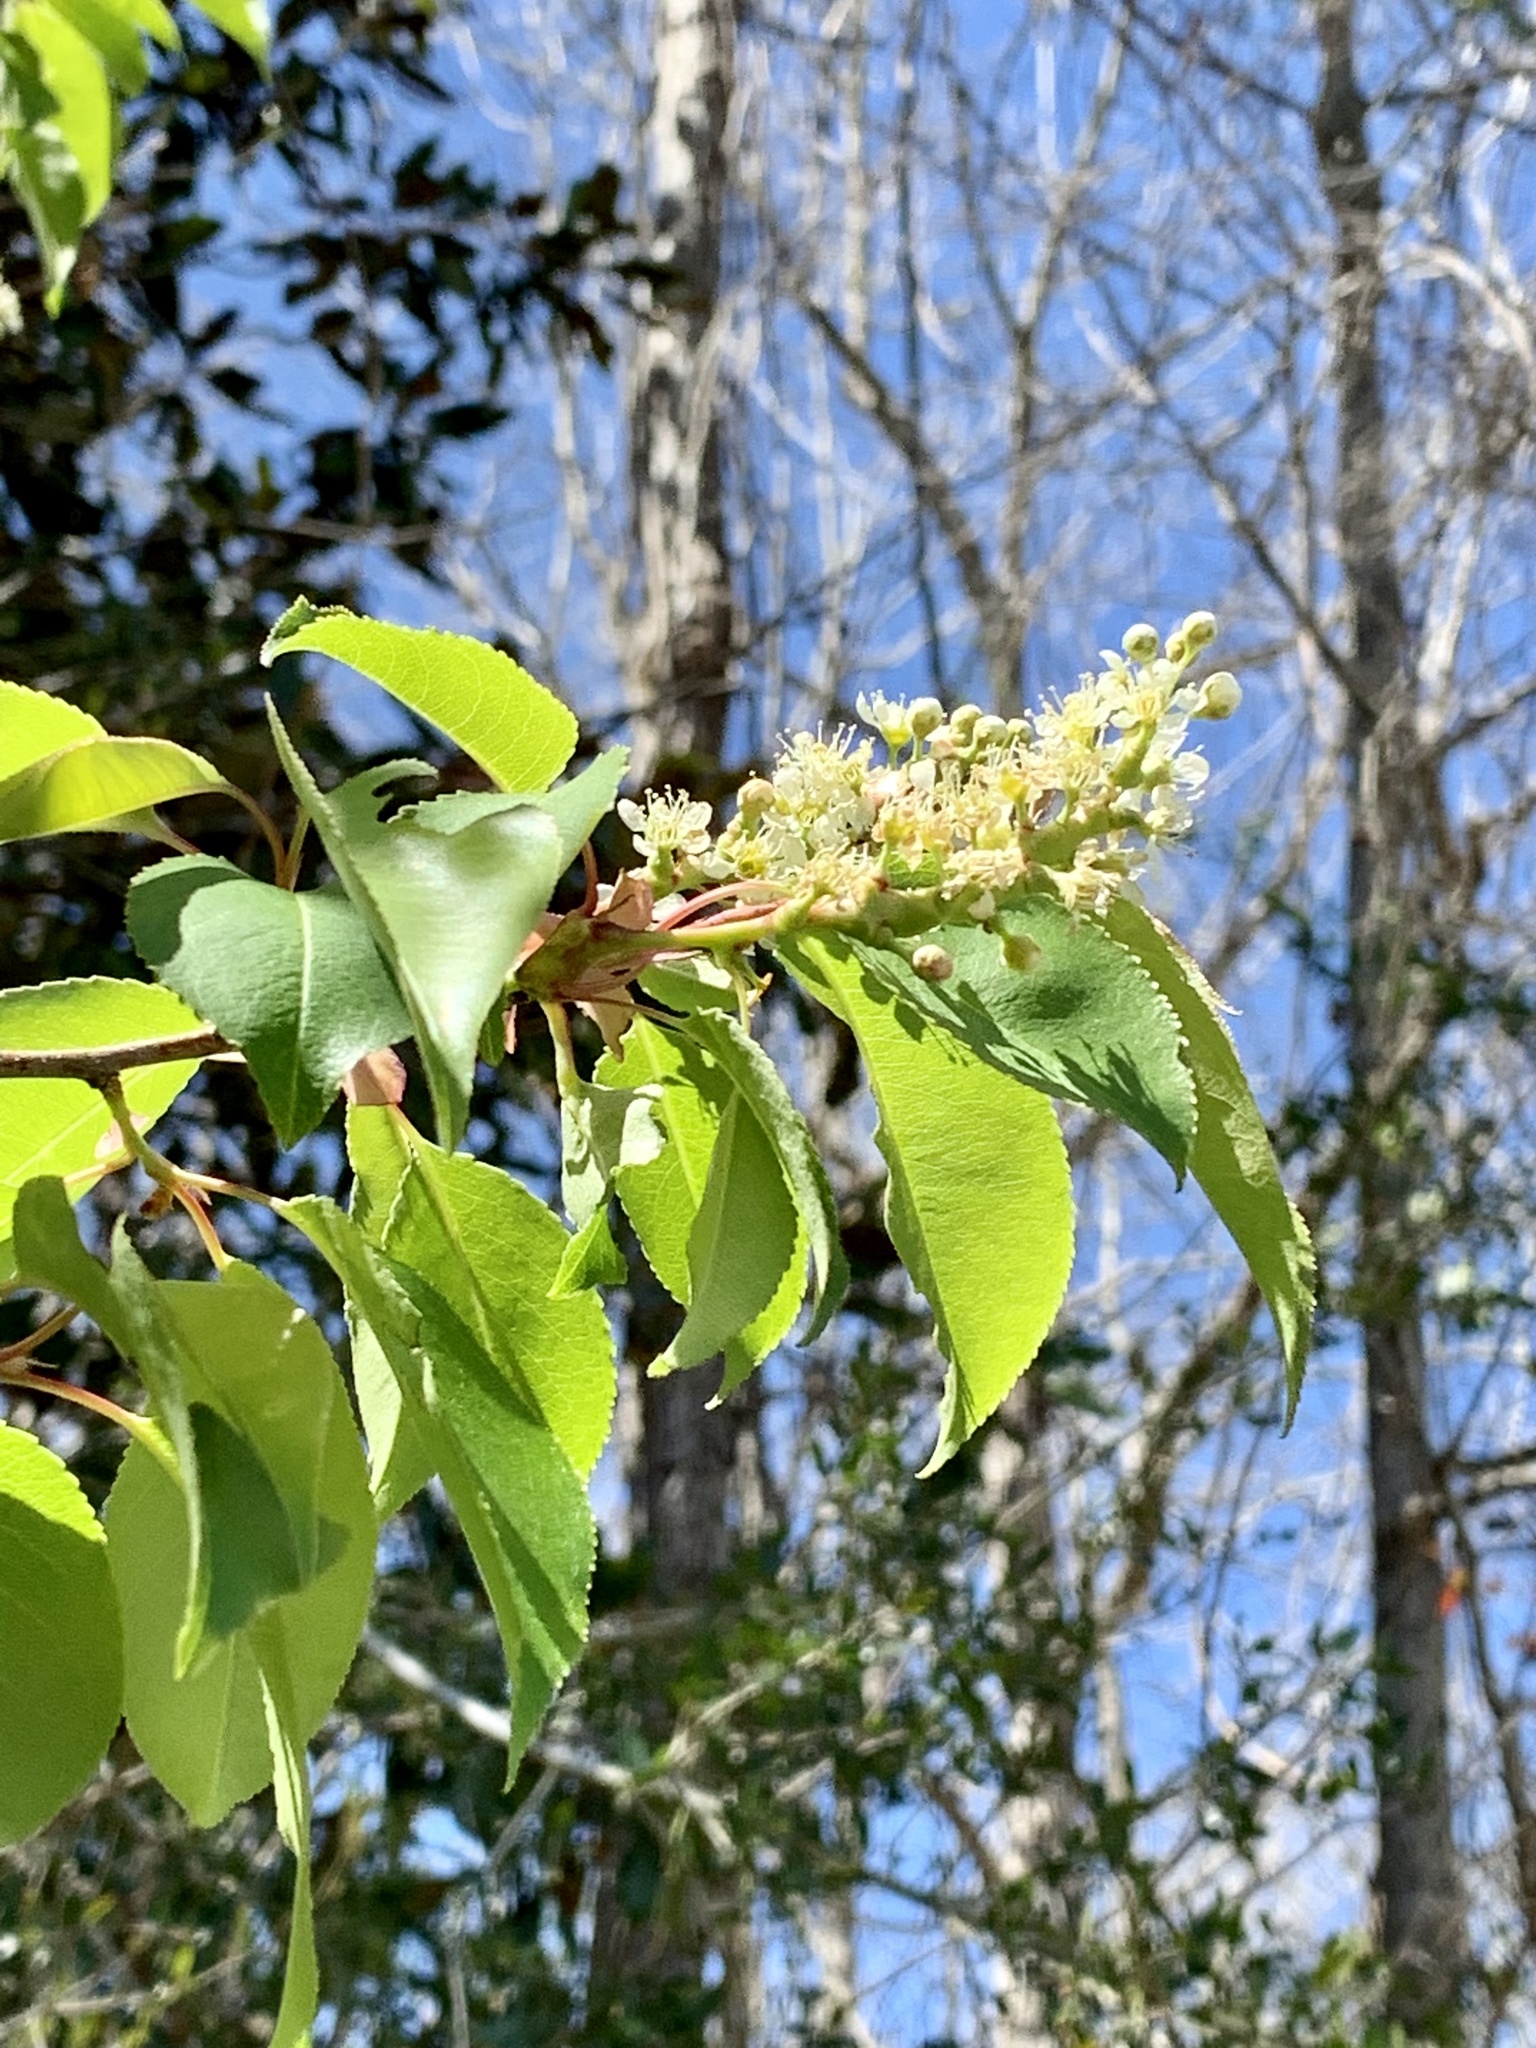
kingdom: Plantae
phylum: Tracheophyta
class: Magnoliopsida
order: Rosales
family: Rosaceae
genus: Prunus
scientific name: Prunus serotina
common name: Black cherry
